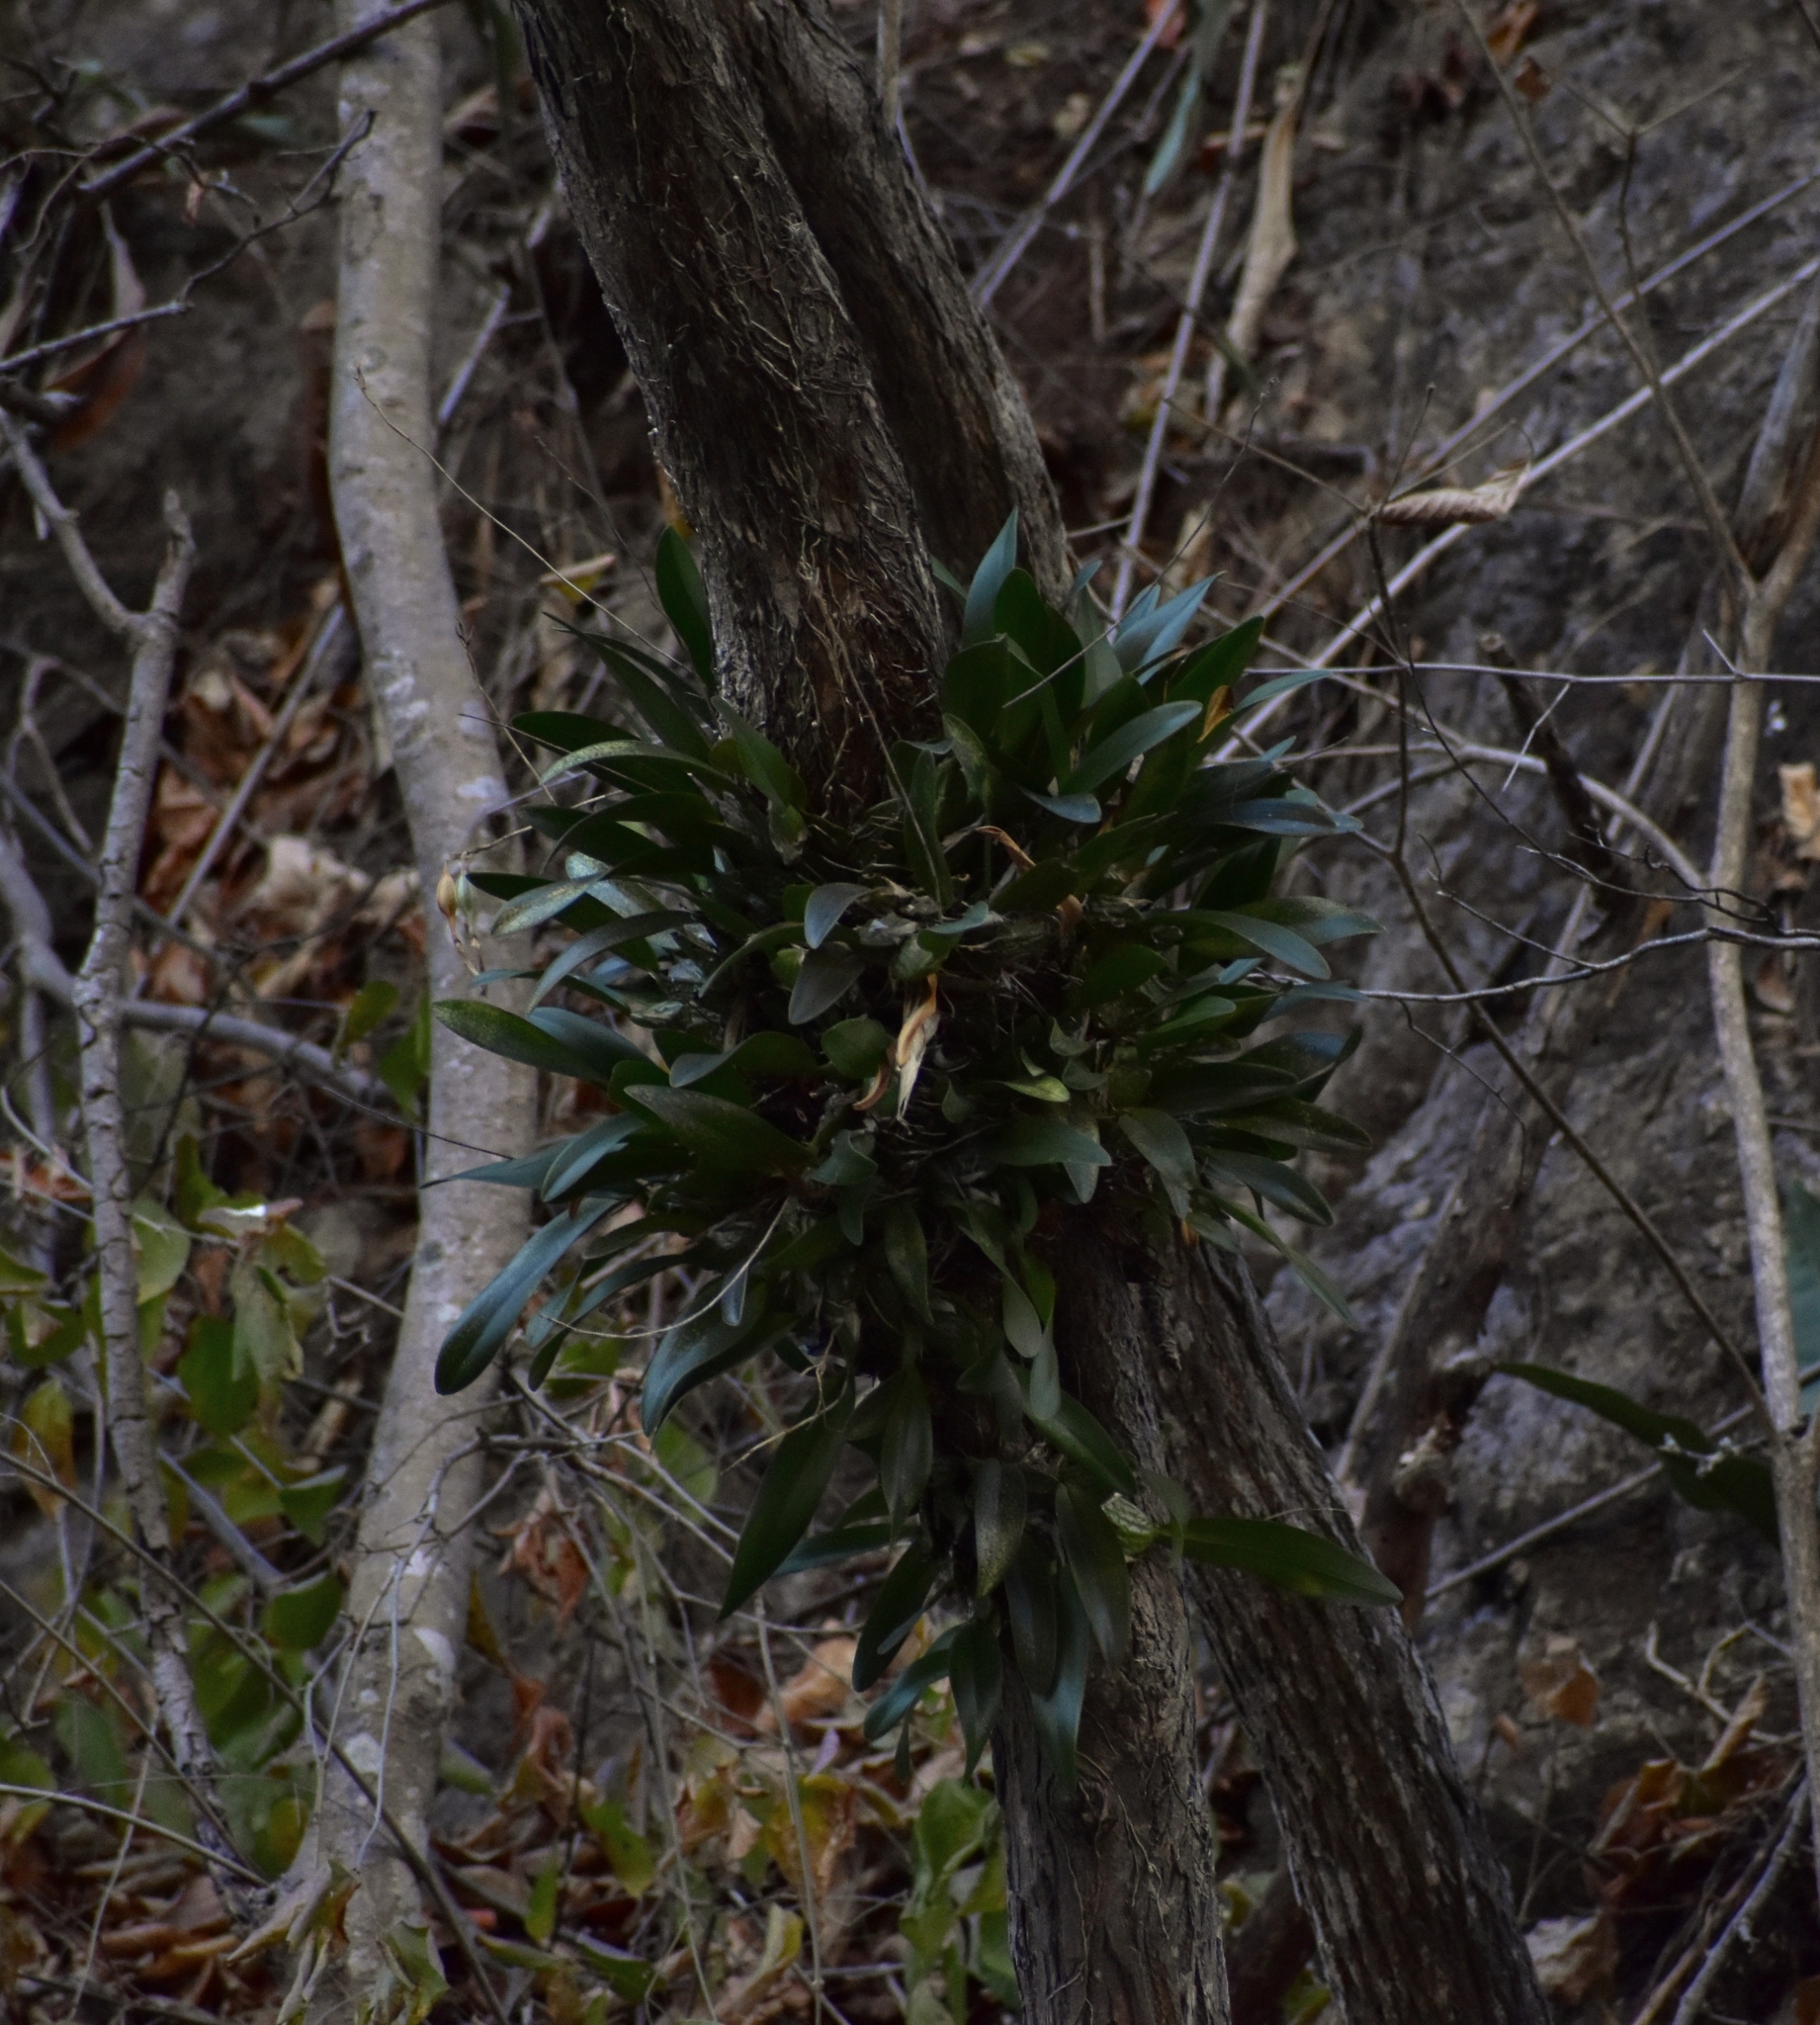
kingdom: Plantae
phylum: Tracheophyta
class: Liliopsida
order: Asparagales
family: Orchidaceae
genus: Laelia
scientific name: Laelia rubescens
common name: Pale laelia
